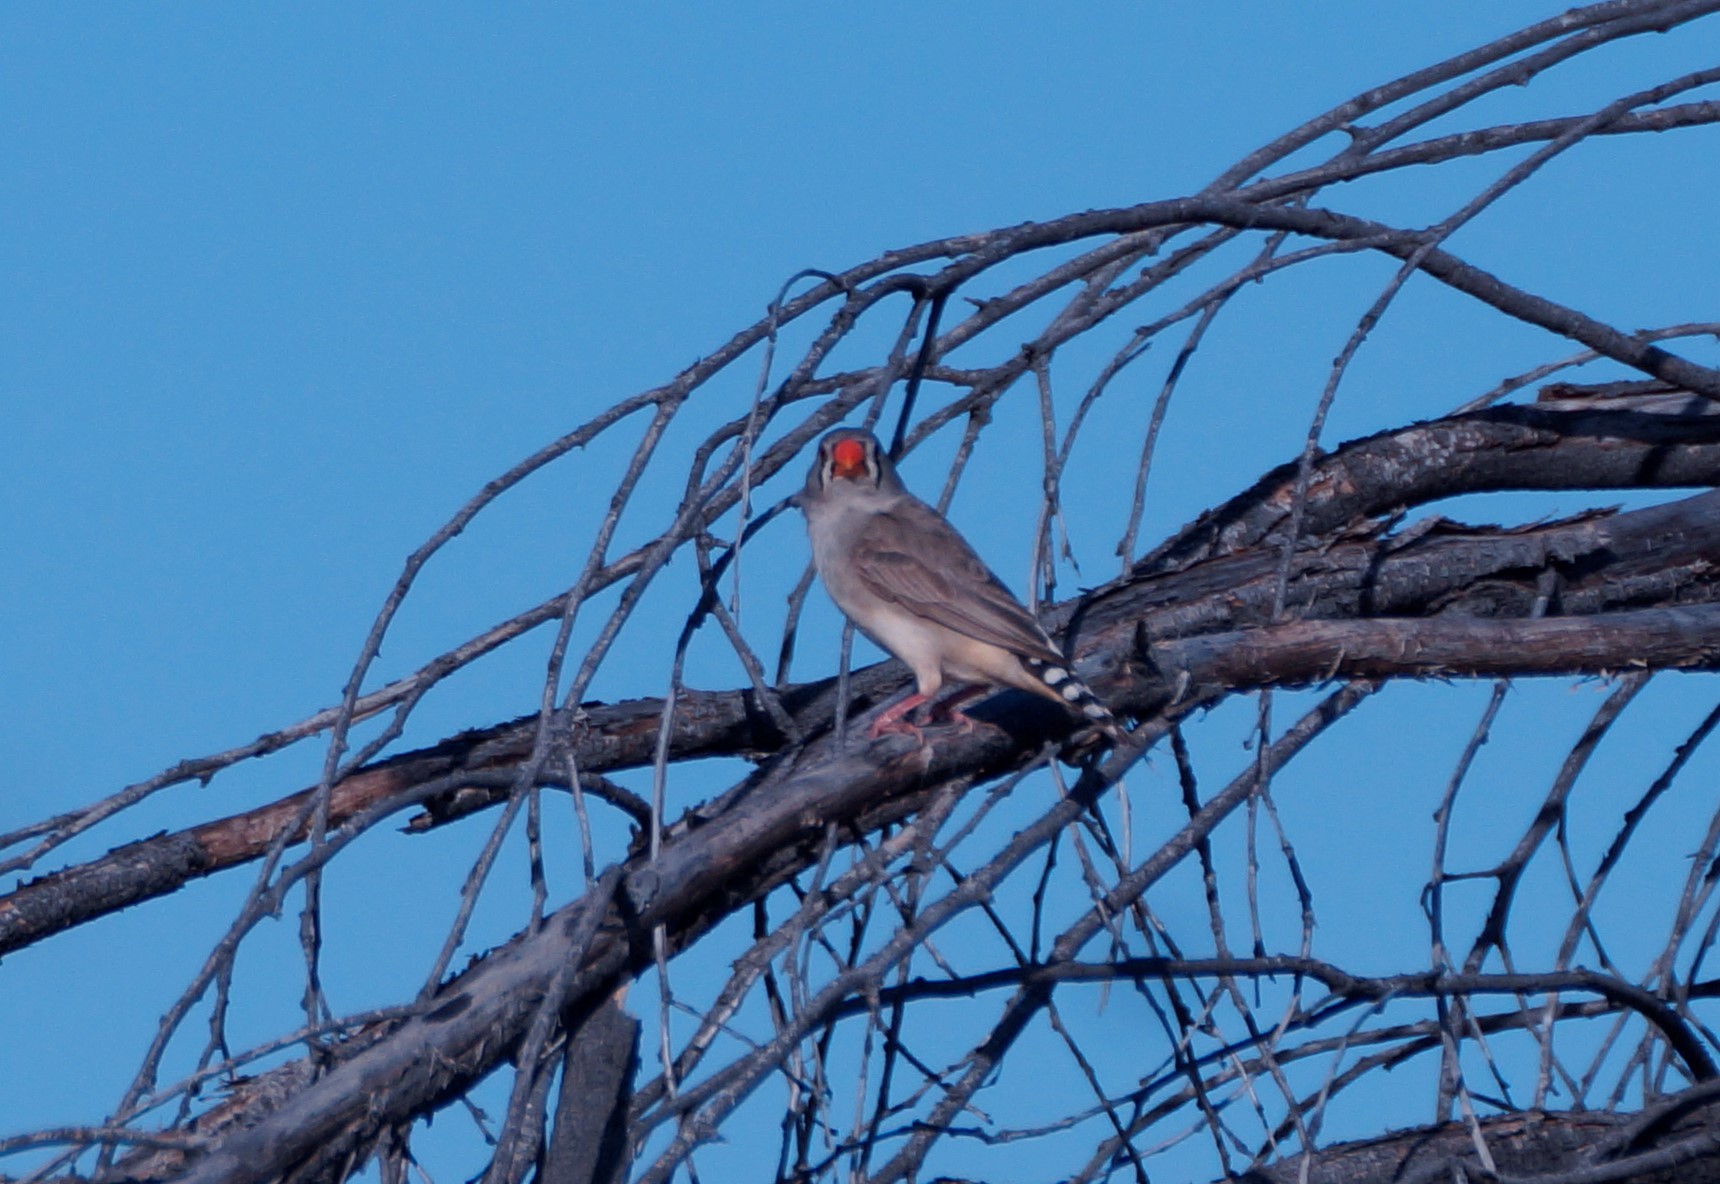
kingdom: Animalia
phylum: Chordata
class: Aves
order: Passeriformes
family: Estrildidae
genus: Taeniopygia
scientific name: Taeniopygia guttata
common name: Zebra finch
